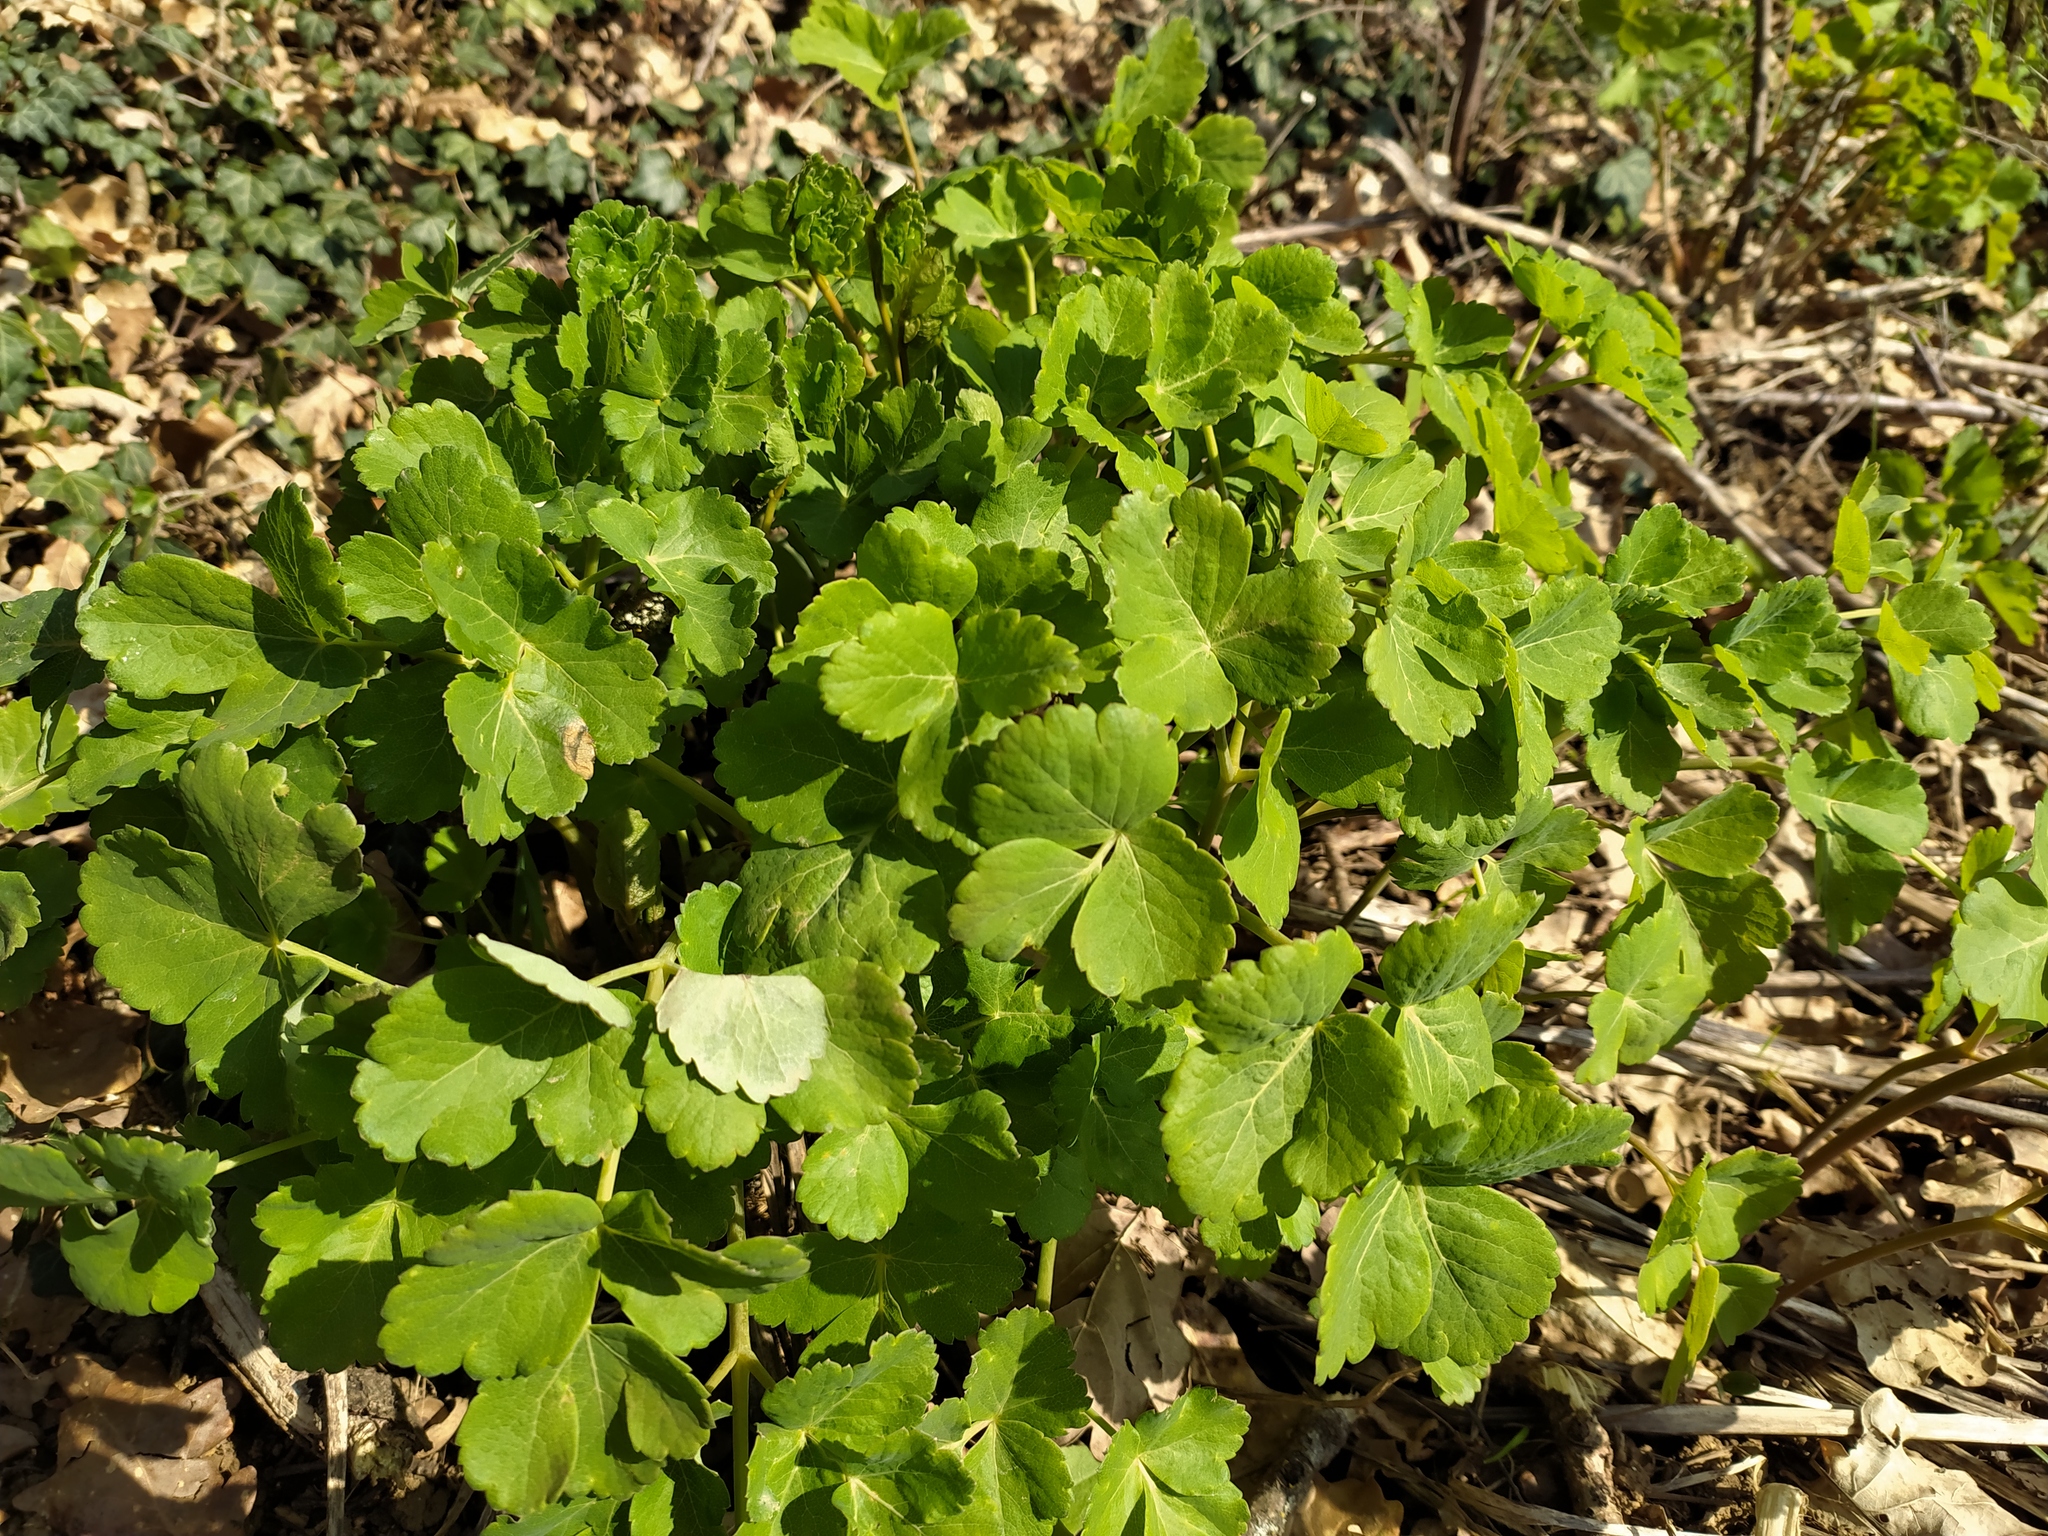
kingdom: Plantae
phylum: Tracheophyta
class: Magnoliopsida
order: Apiales
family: Apiaceae
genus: Laser
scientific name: Laser trilobum
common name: Laser
